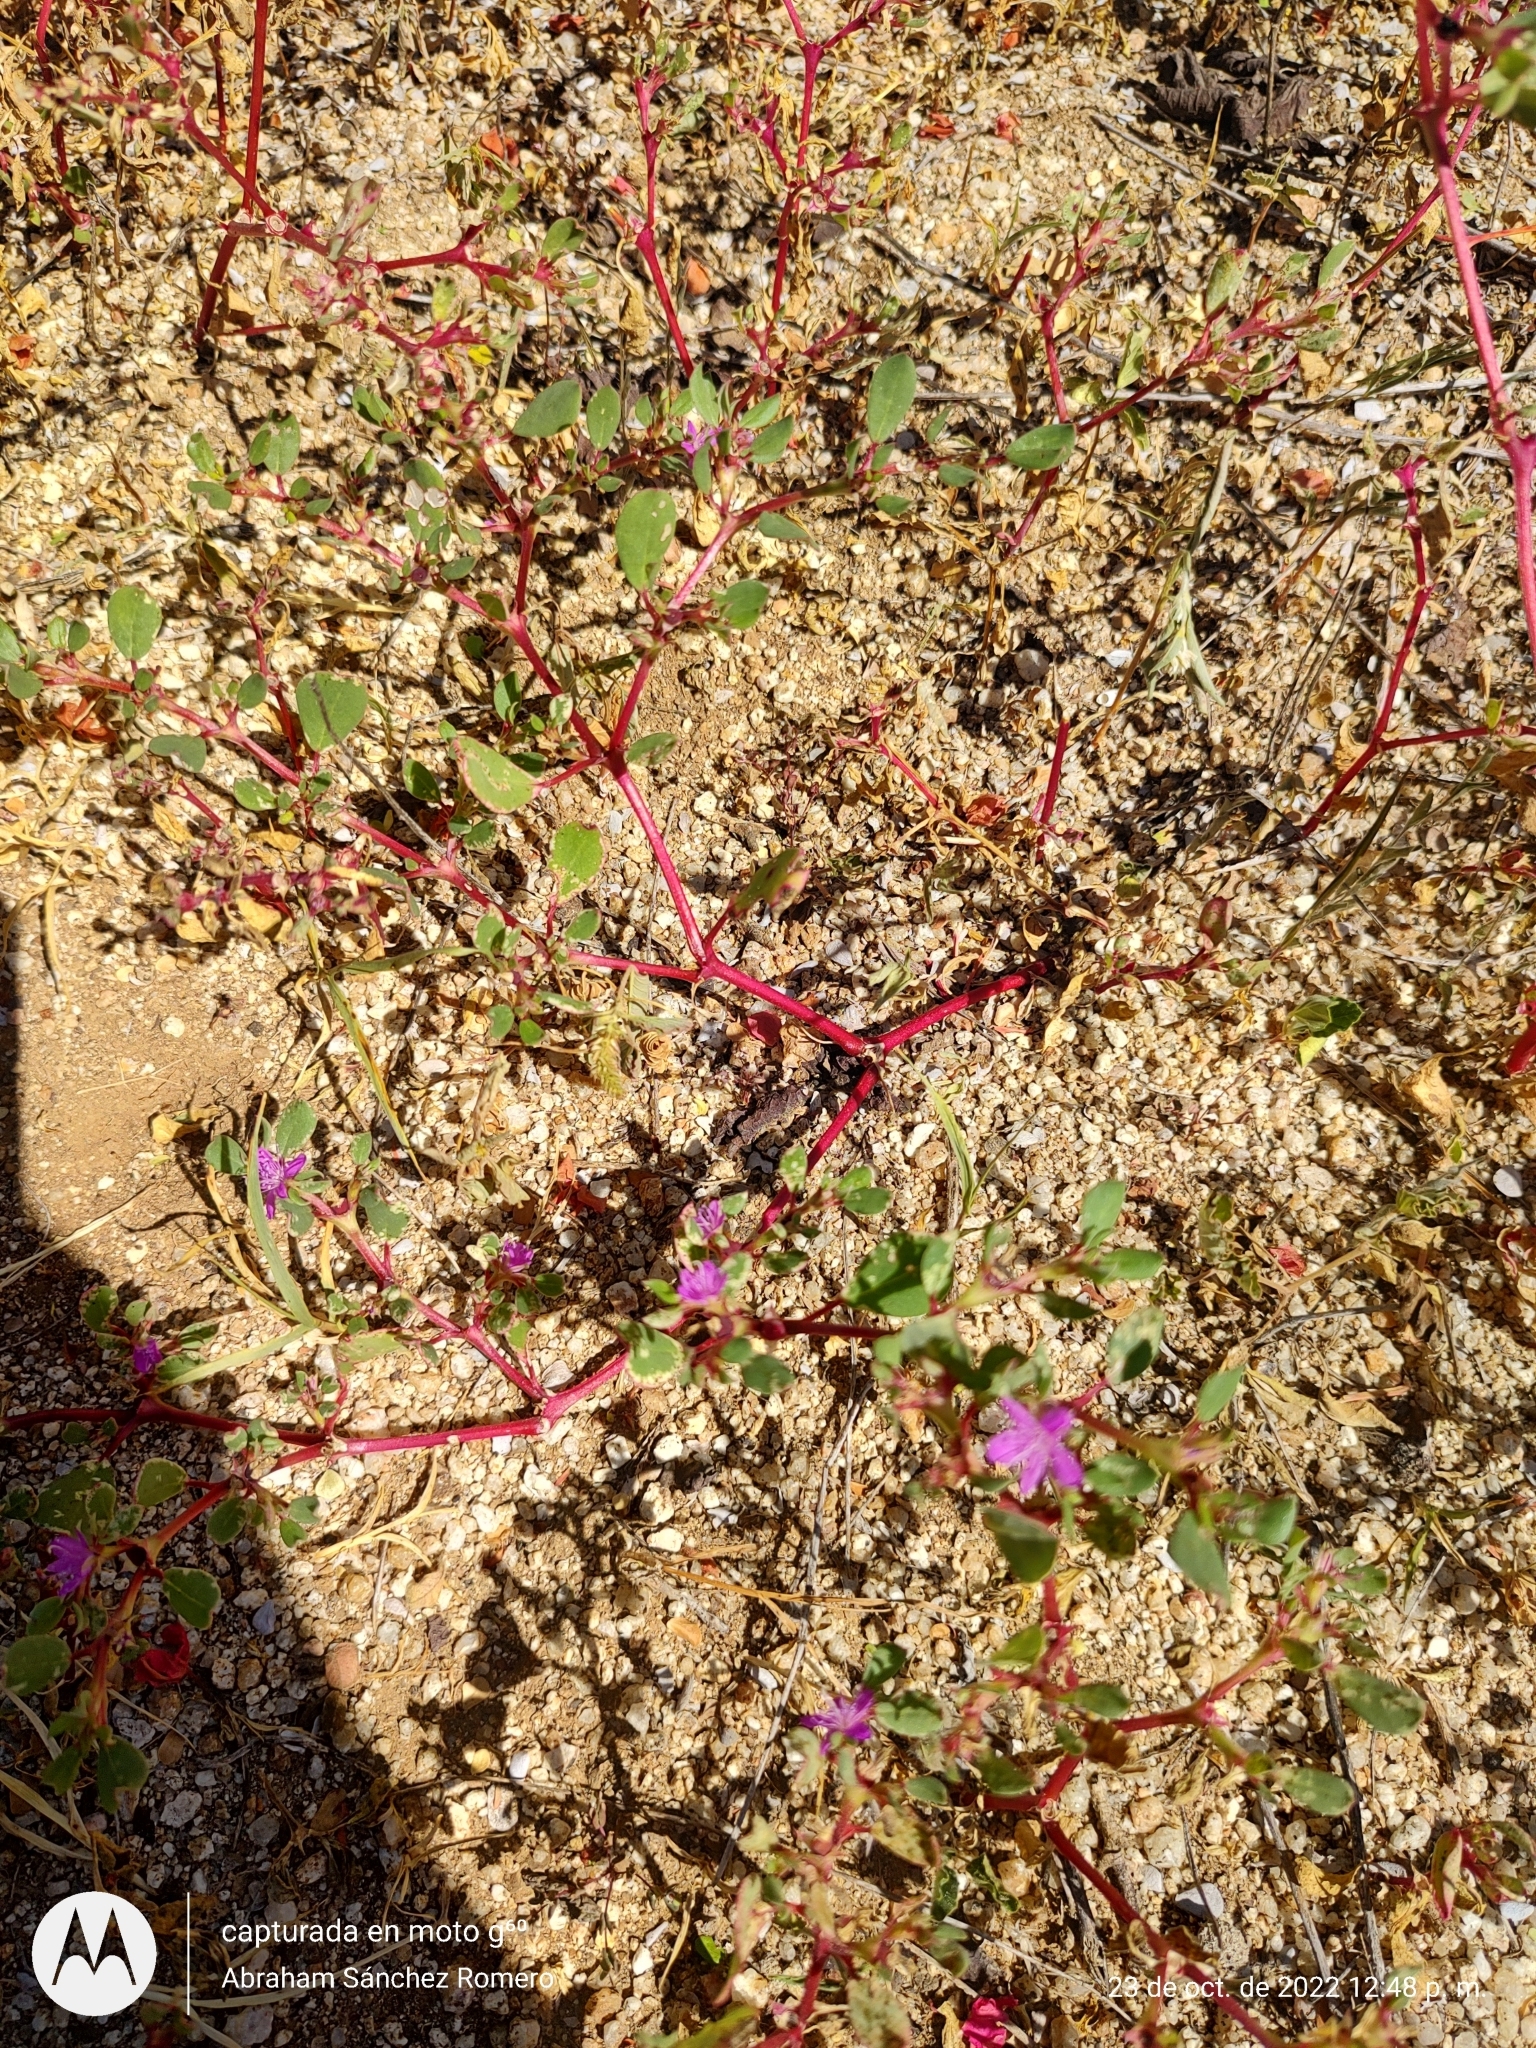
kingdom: Plantae
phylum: Tracheophyta
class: Magnoliopsida
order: Caryophyllales
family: Aizoaceae
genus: Trianthema
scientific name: Trianthema portulacastrum
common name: Desert horsepurslane
